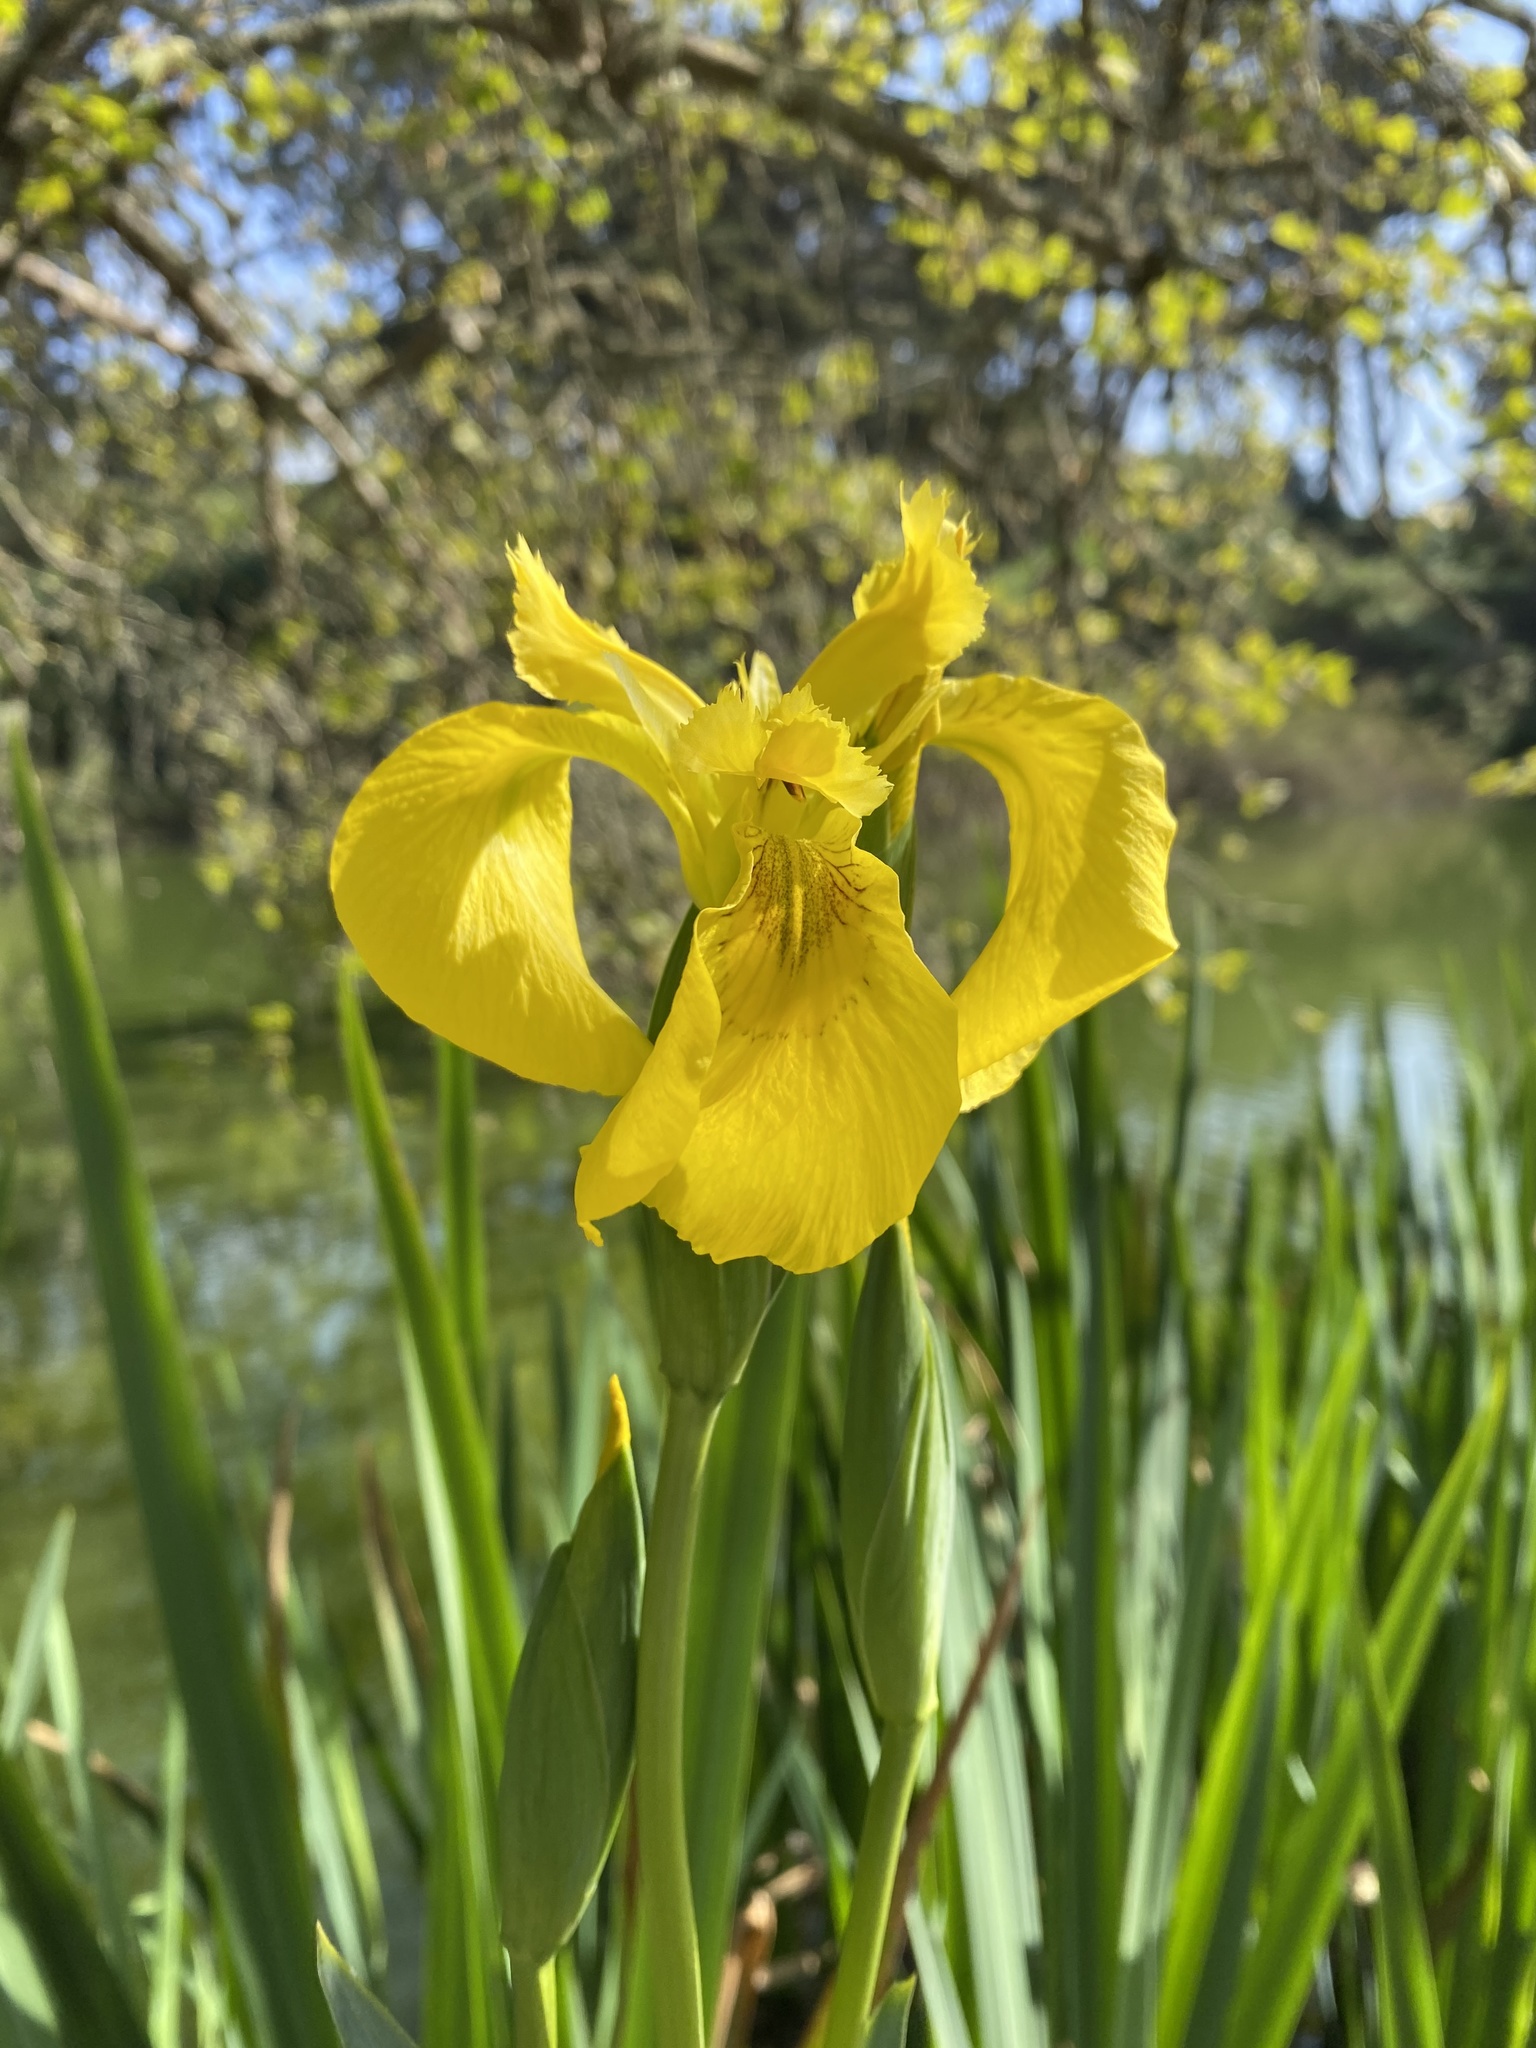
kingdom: Plantae
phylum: Tracheophyta
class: Liliopsida
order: Asparagales
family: Iridaceae
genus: Iris
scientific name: Iris pseudacorus
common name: Yellow flag
